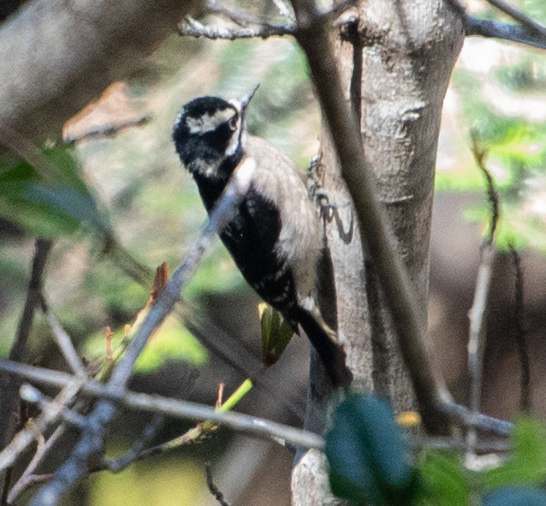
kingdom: Animalia
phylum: Chordata
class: Aves
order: Piciformes
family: Picidae
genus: Leuconotopicus
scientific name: Leuconotopicus villosus
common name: Hairy woodpecker
